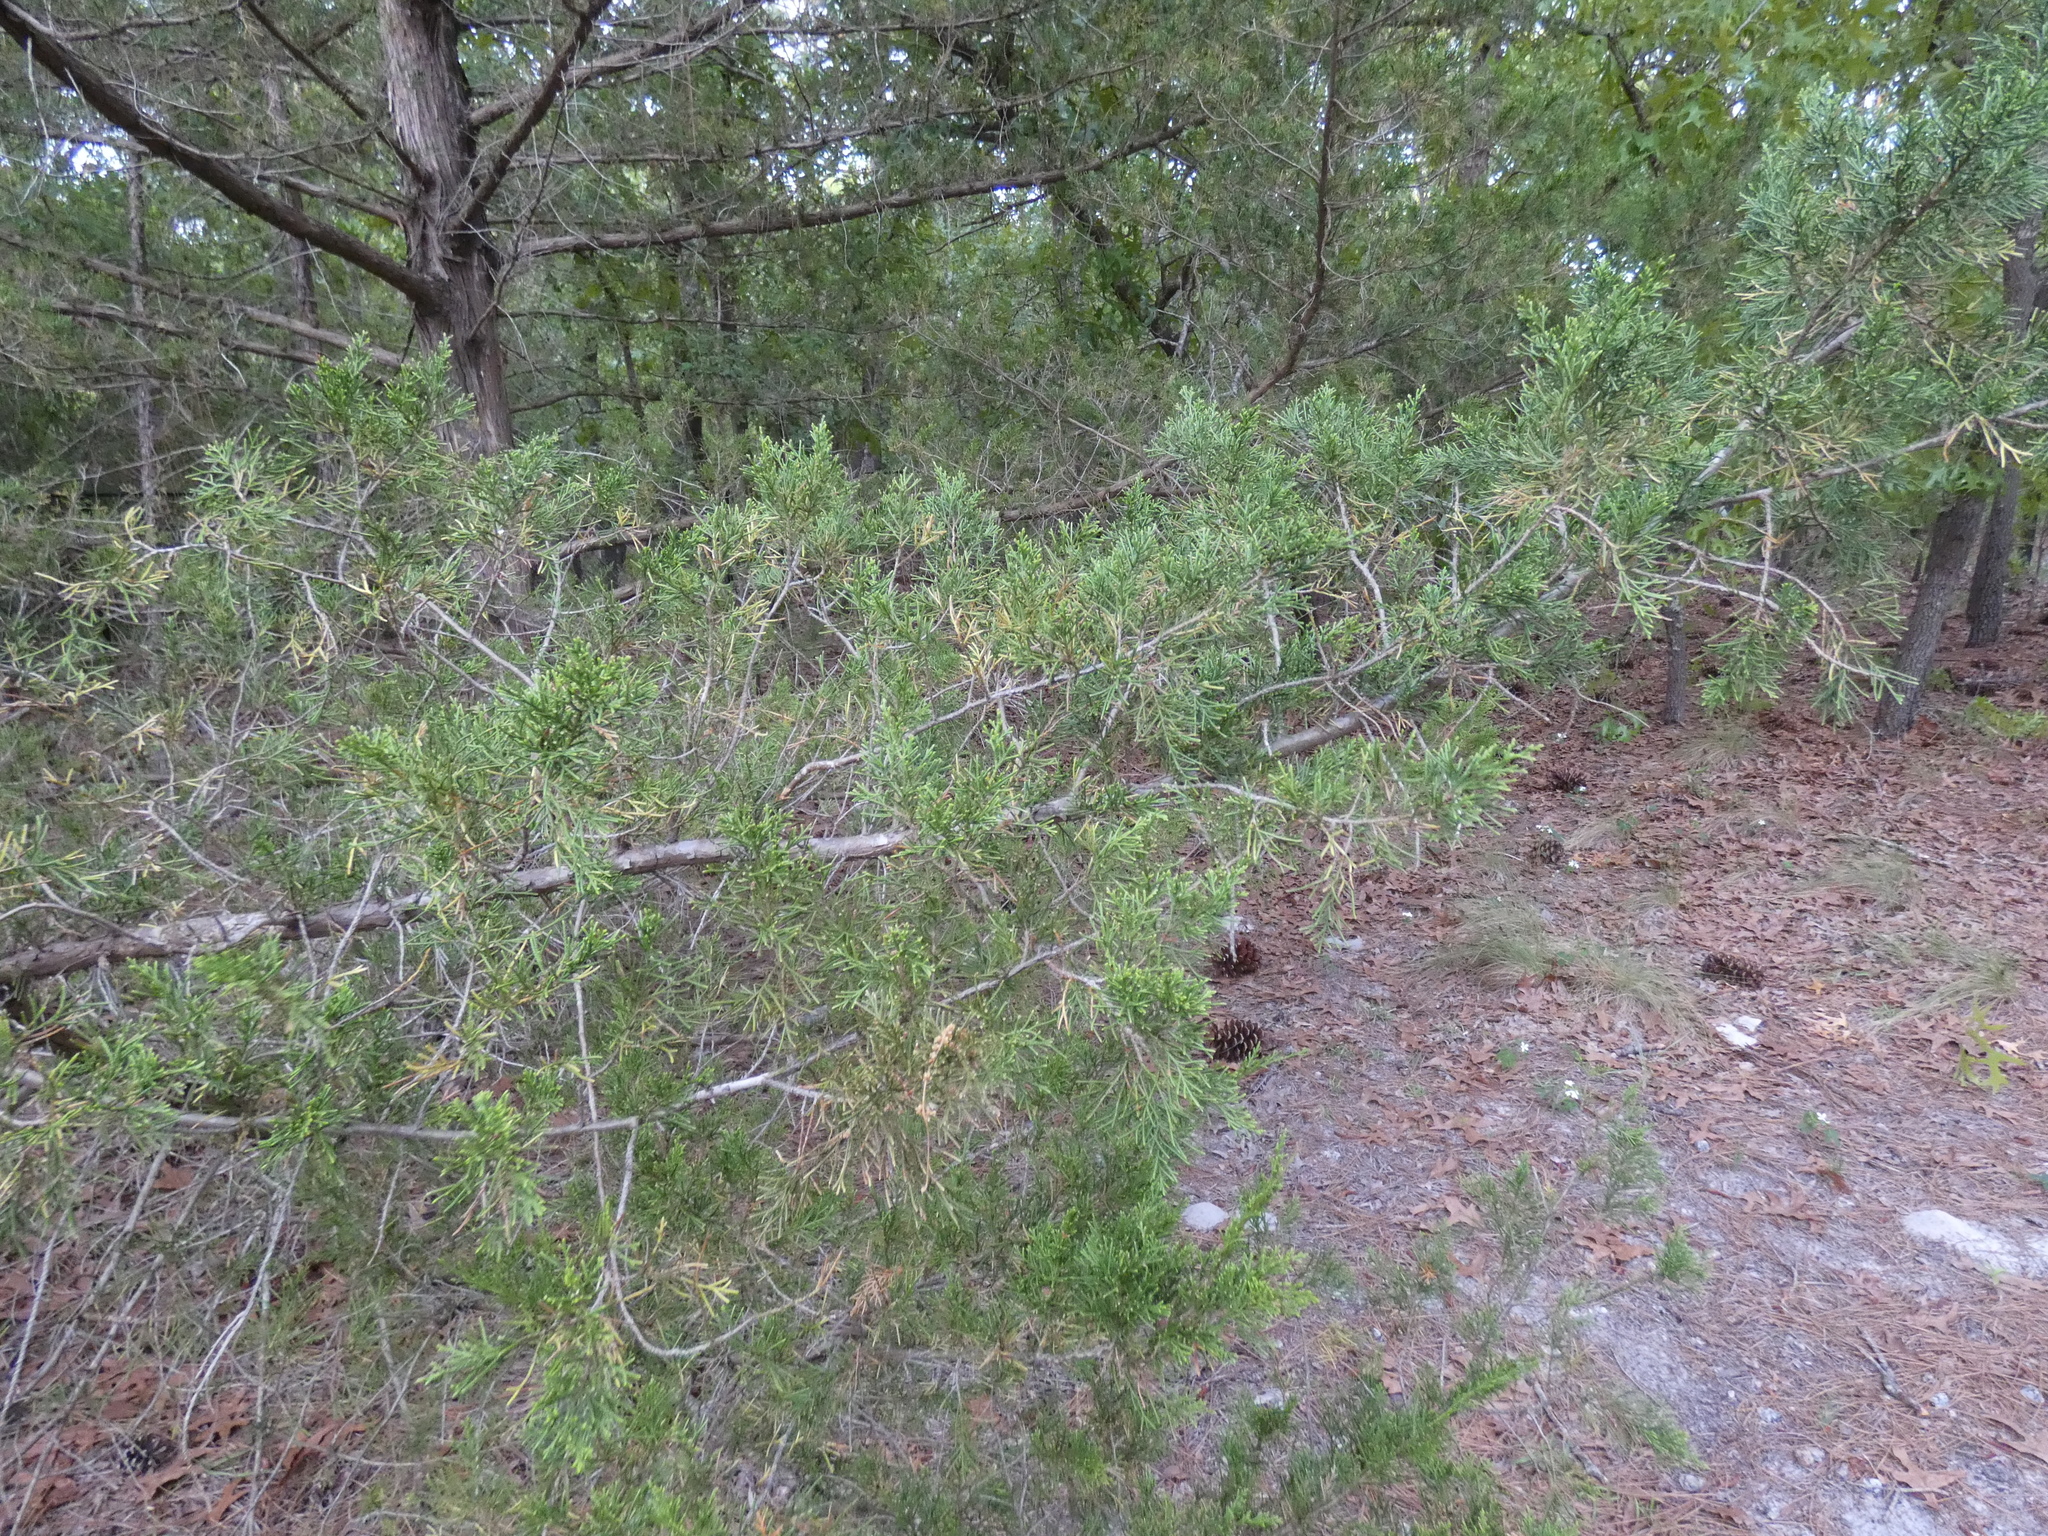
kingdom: Plantae
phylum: Tracheophyta
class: Pinopsida
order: Pinales
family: Cupressaceae
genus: Juniperus
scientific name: Juniperus virginiana
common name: Red juniper
